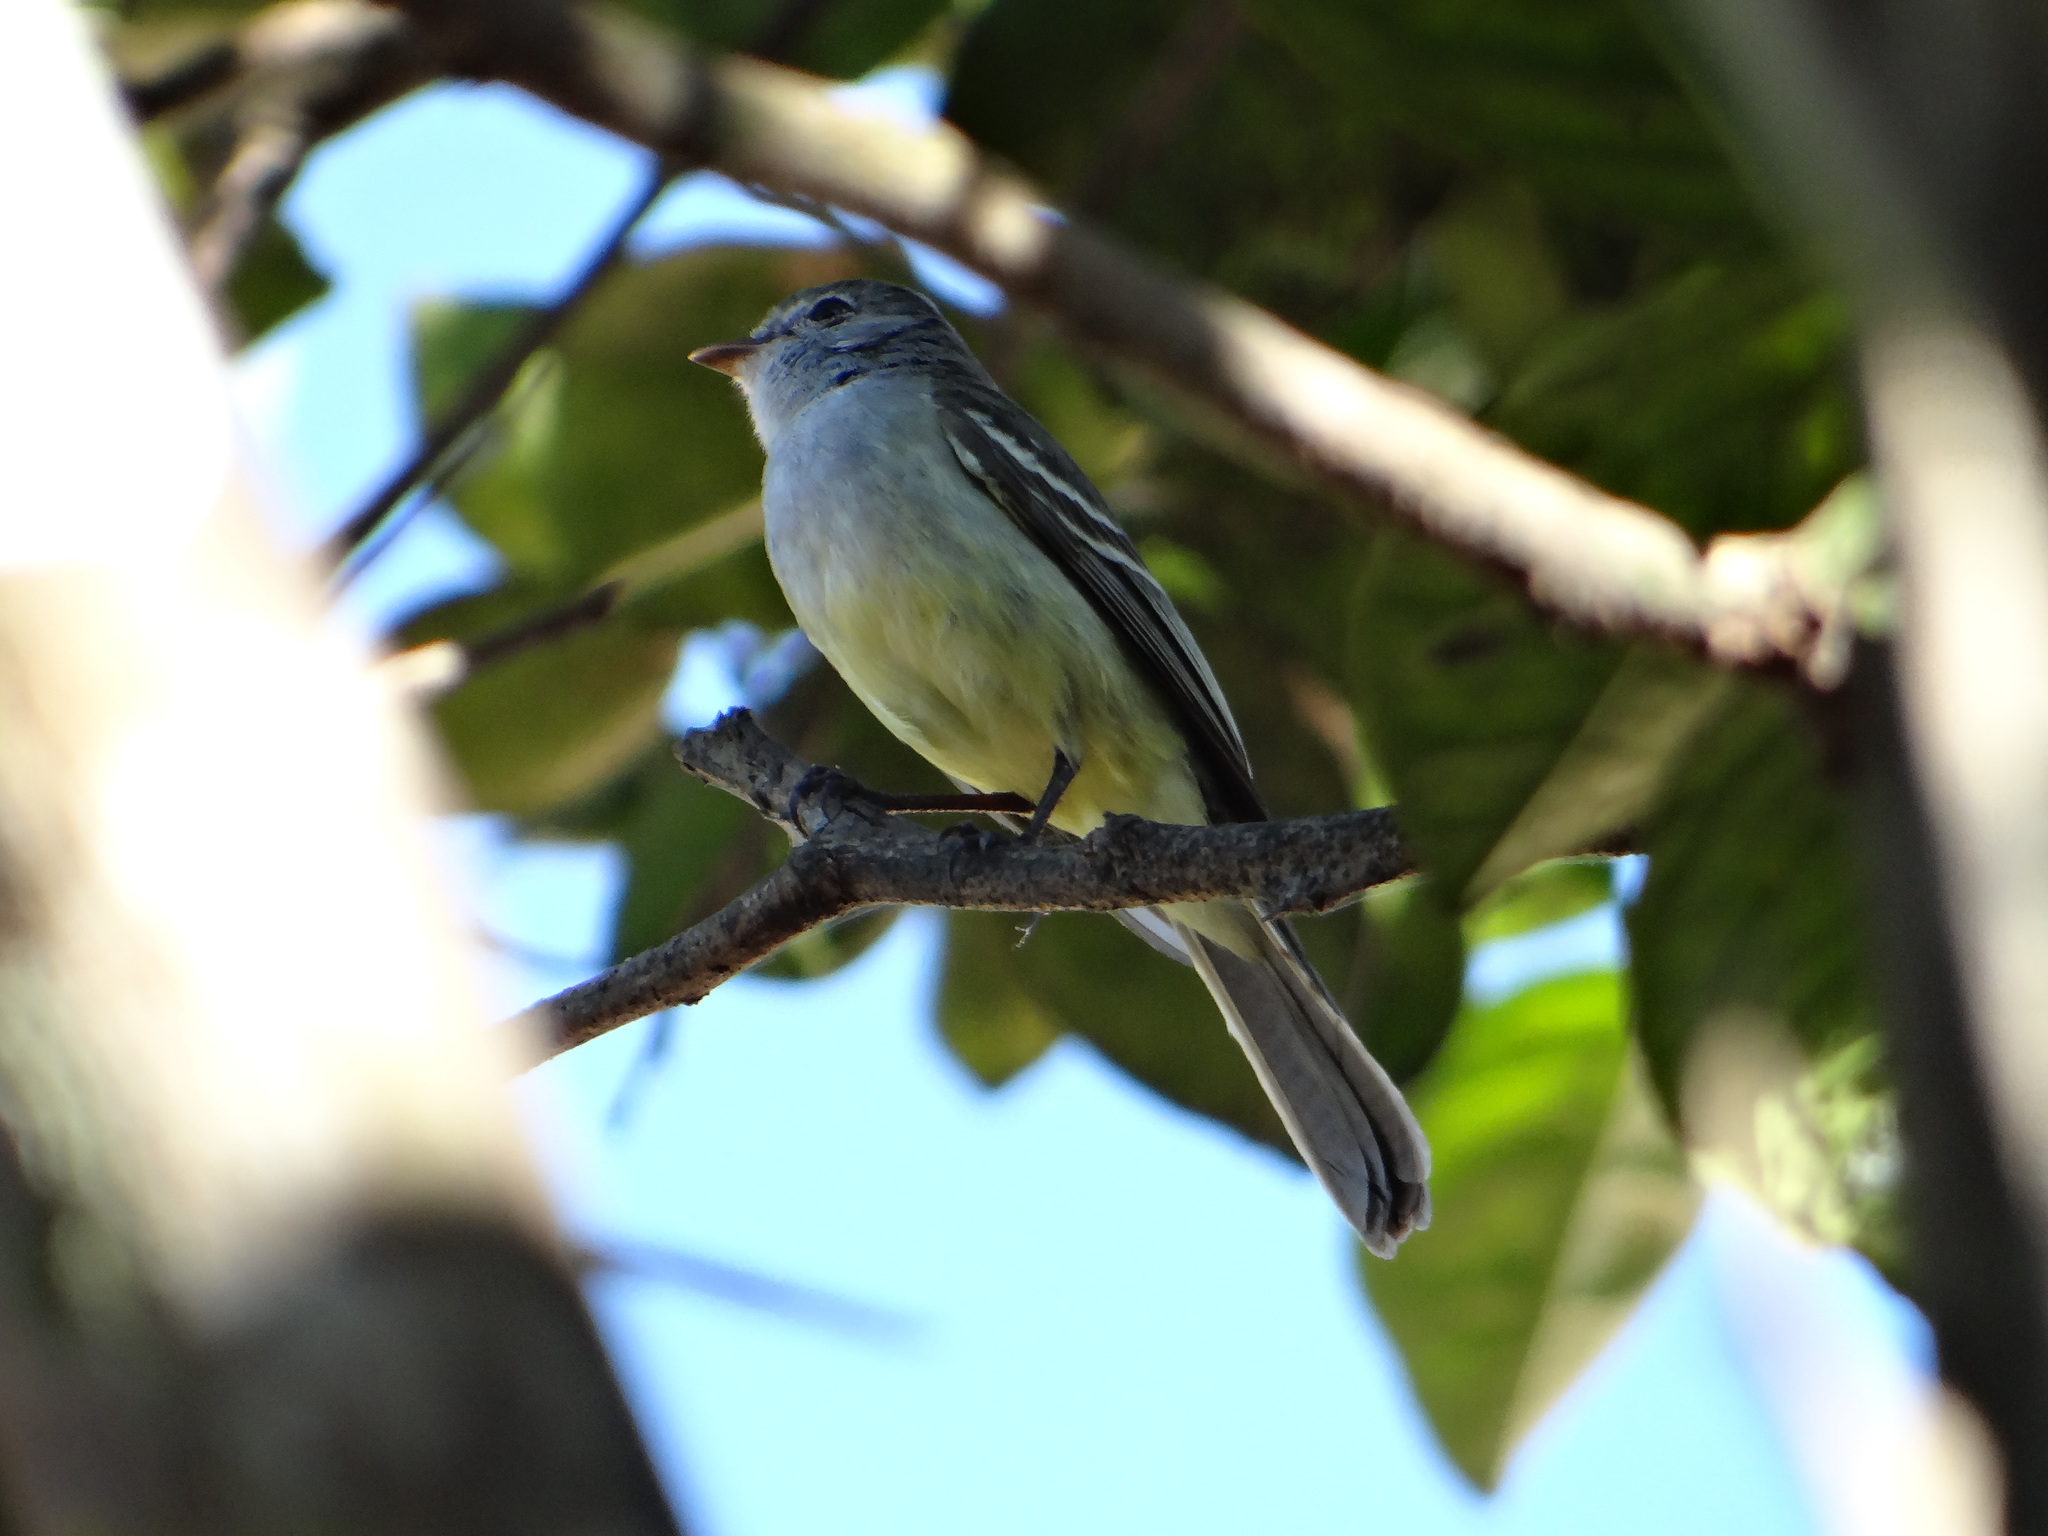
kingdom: Animalia
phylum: Chordata
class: Aves
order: Passeriformes
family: Tyrannidae
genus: Sublegatus
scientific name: Sublegatus modestus
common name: Southern scrub flycatcher
